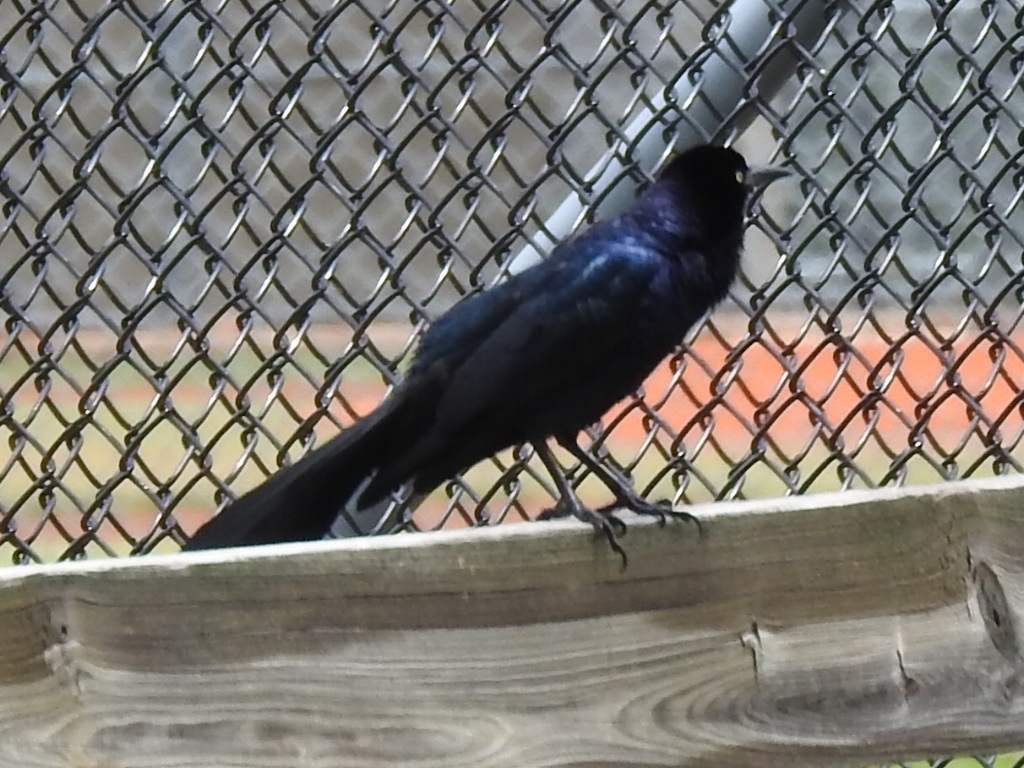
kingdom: Animalia
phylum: Chordata
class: Aves
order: Passeriformes
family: Icteridae
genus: Quiscalus
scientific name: Quiscalus mexicanus
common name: Great-tailed grackle
